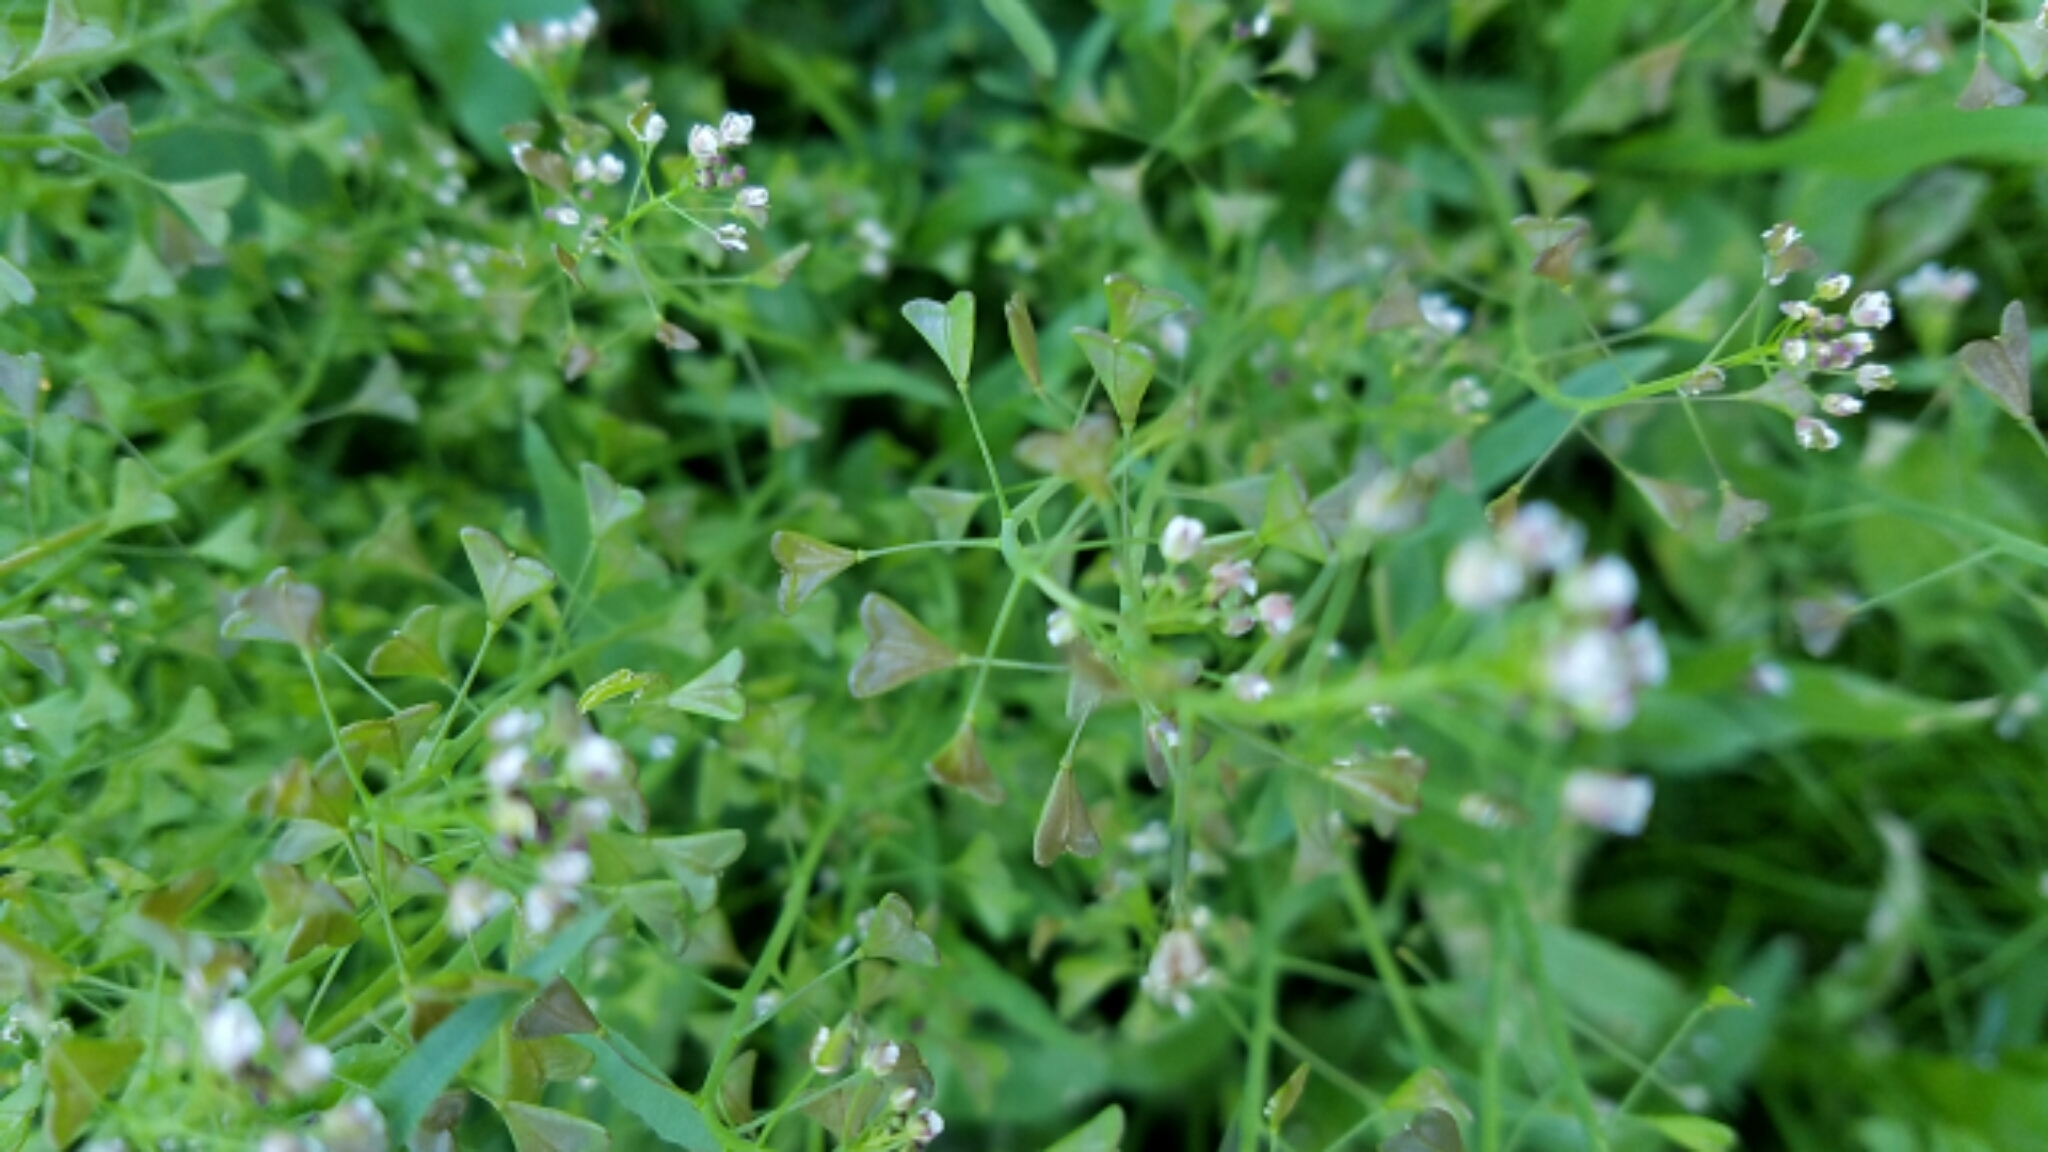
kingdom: Plantae
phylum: Tracheophyta
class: Magnoliopsida
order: Brassicales
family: Brassicaceae
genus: Capsella
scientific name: Capsella bursa-pastoris
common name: Shepherd's purse
